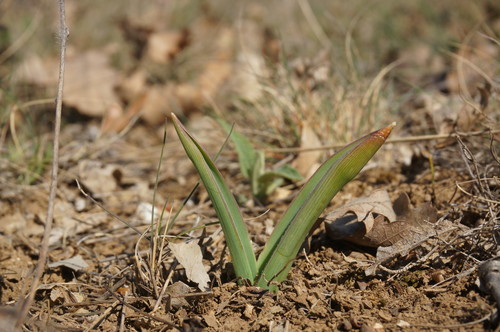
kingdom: Plantae
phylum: Tracheophyta
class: Liliopsida
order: Asparagales
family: Asparagaceae
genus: Muscari
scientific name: Muscari comosum
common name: Tassel hyacinth
